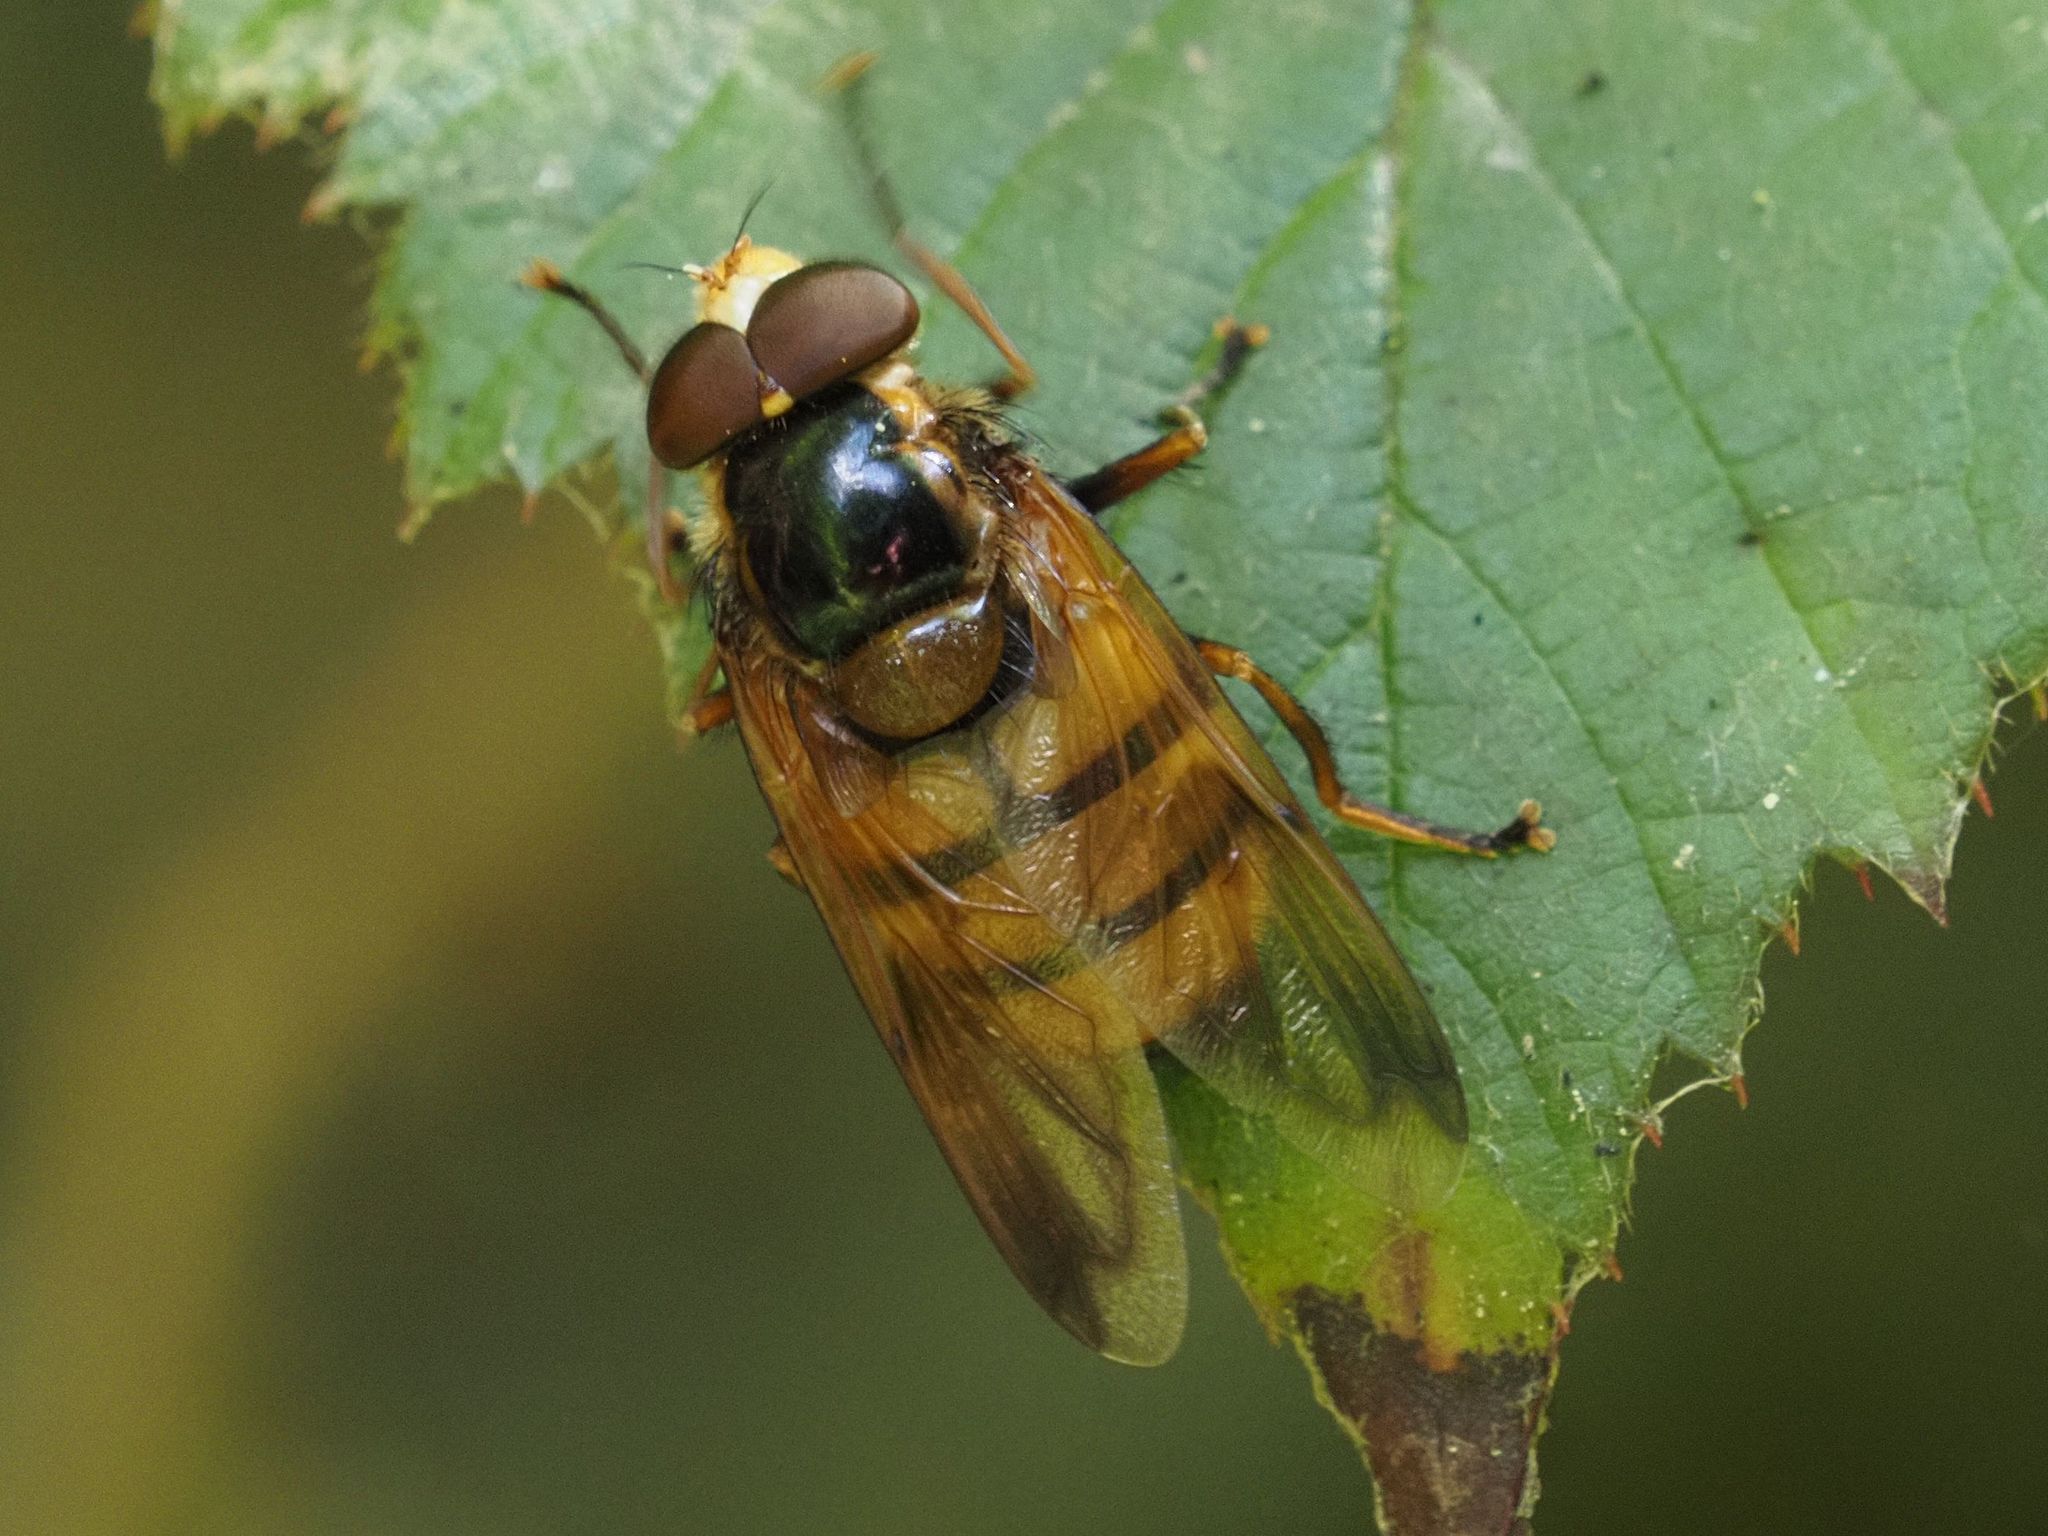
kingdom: Animalia
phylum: Arthropoda
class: Insecta
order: Diptera
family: Syrphidae
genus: Volucella
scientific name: Volucella inanis
